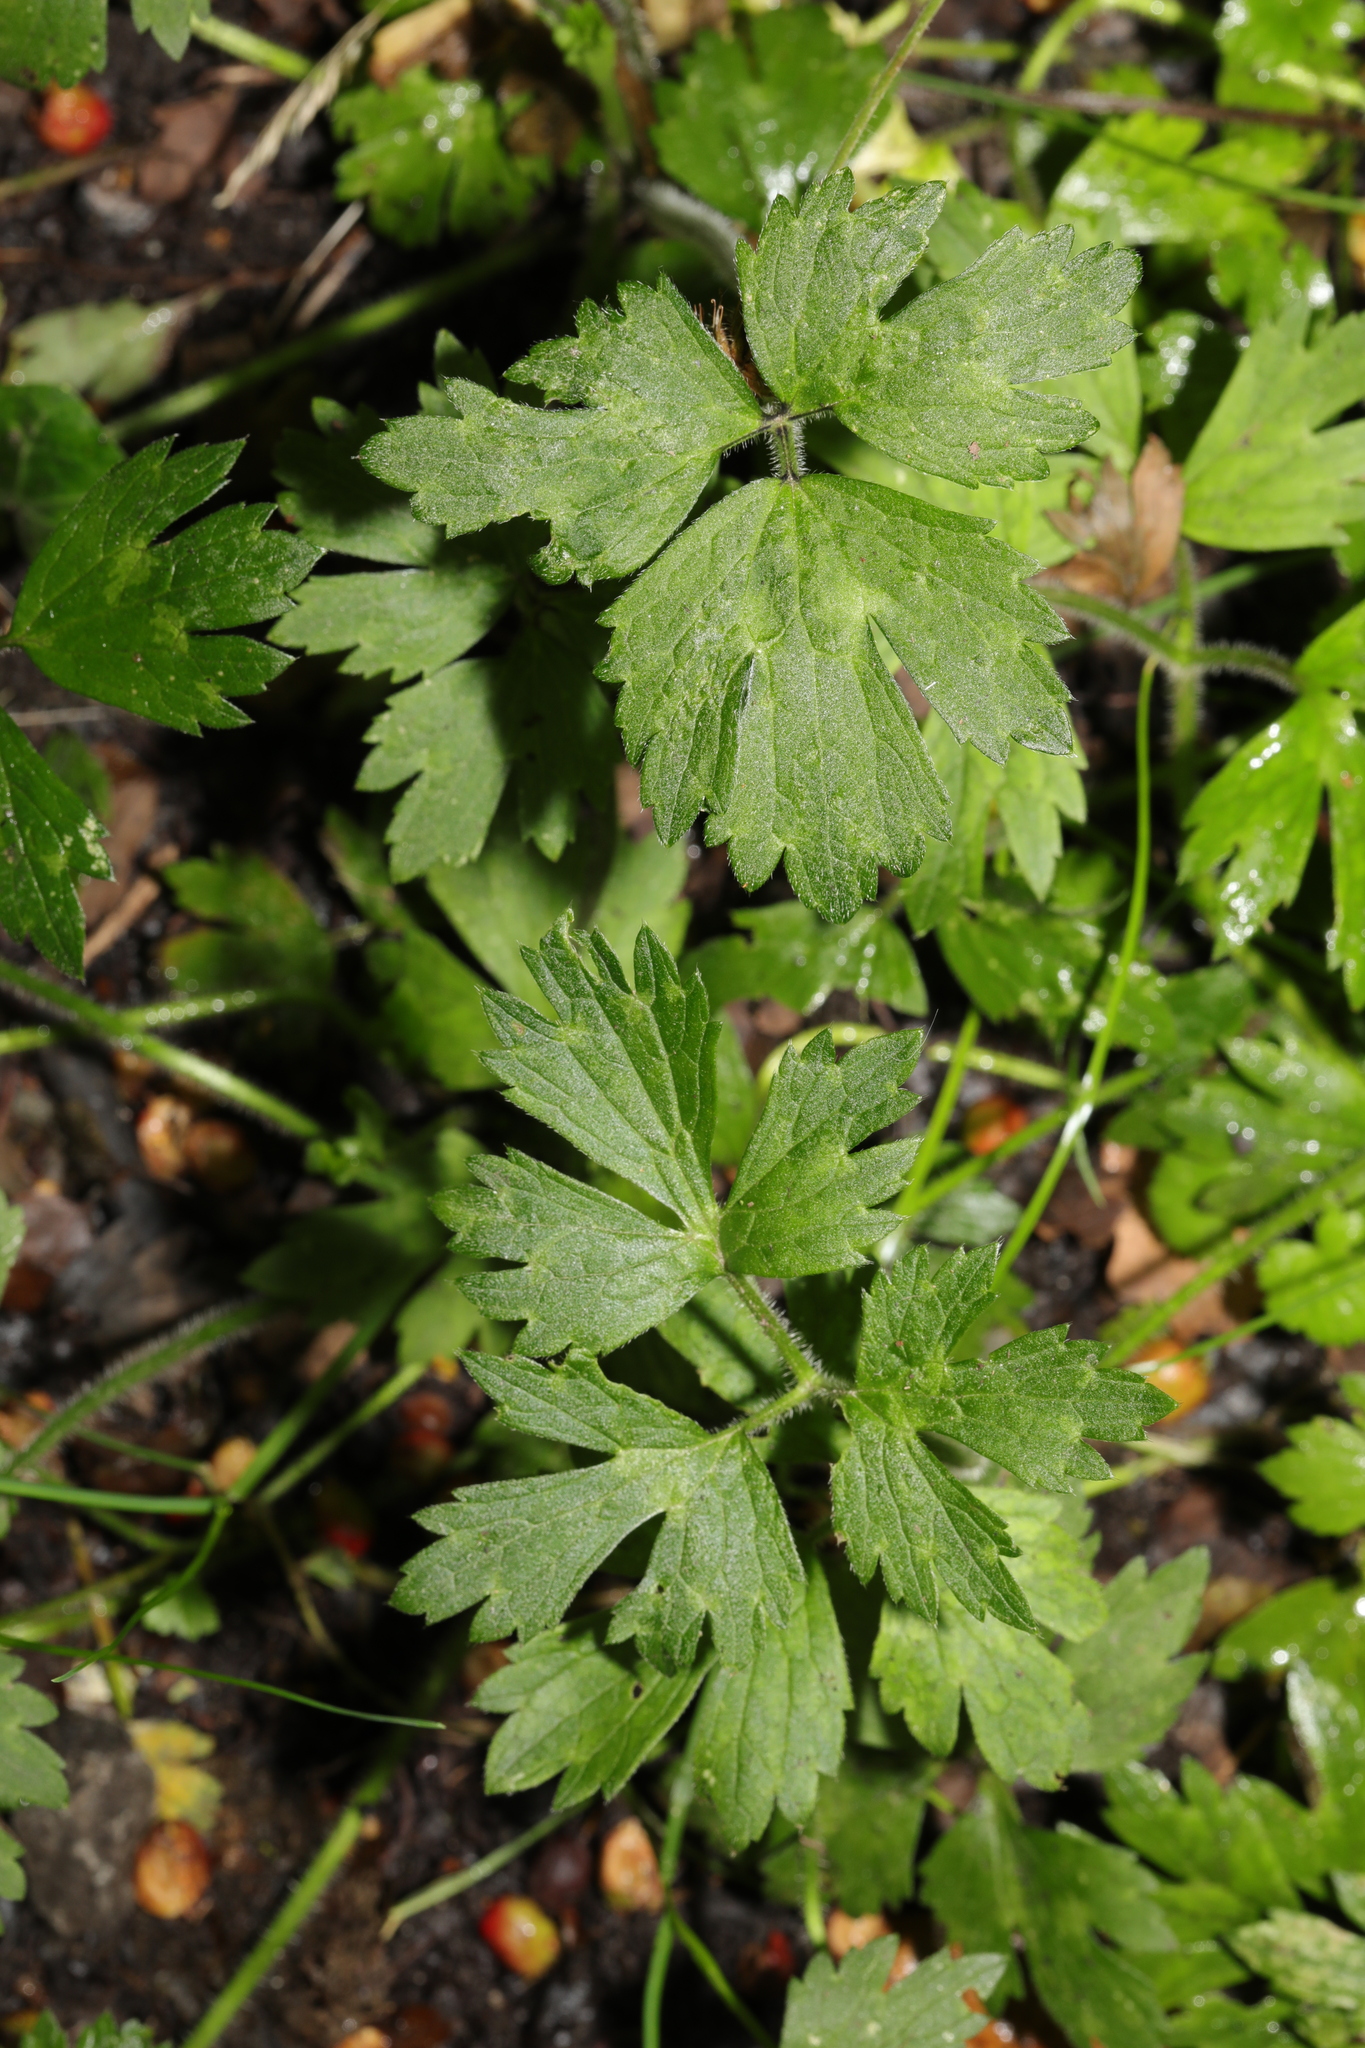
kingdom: Plantae
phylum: Tracheophyta
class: Magnoliopsida
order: Ranunculales
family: Ranunculaceae
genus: Ranunculus
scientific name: Ranunculus repens
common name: Creeping buttercup
